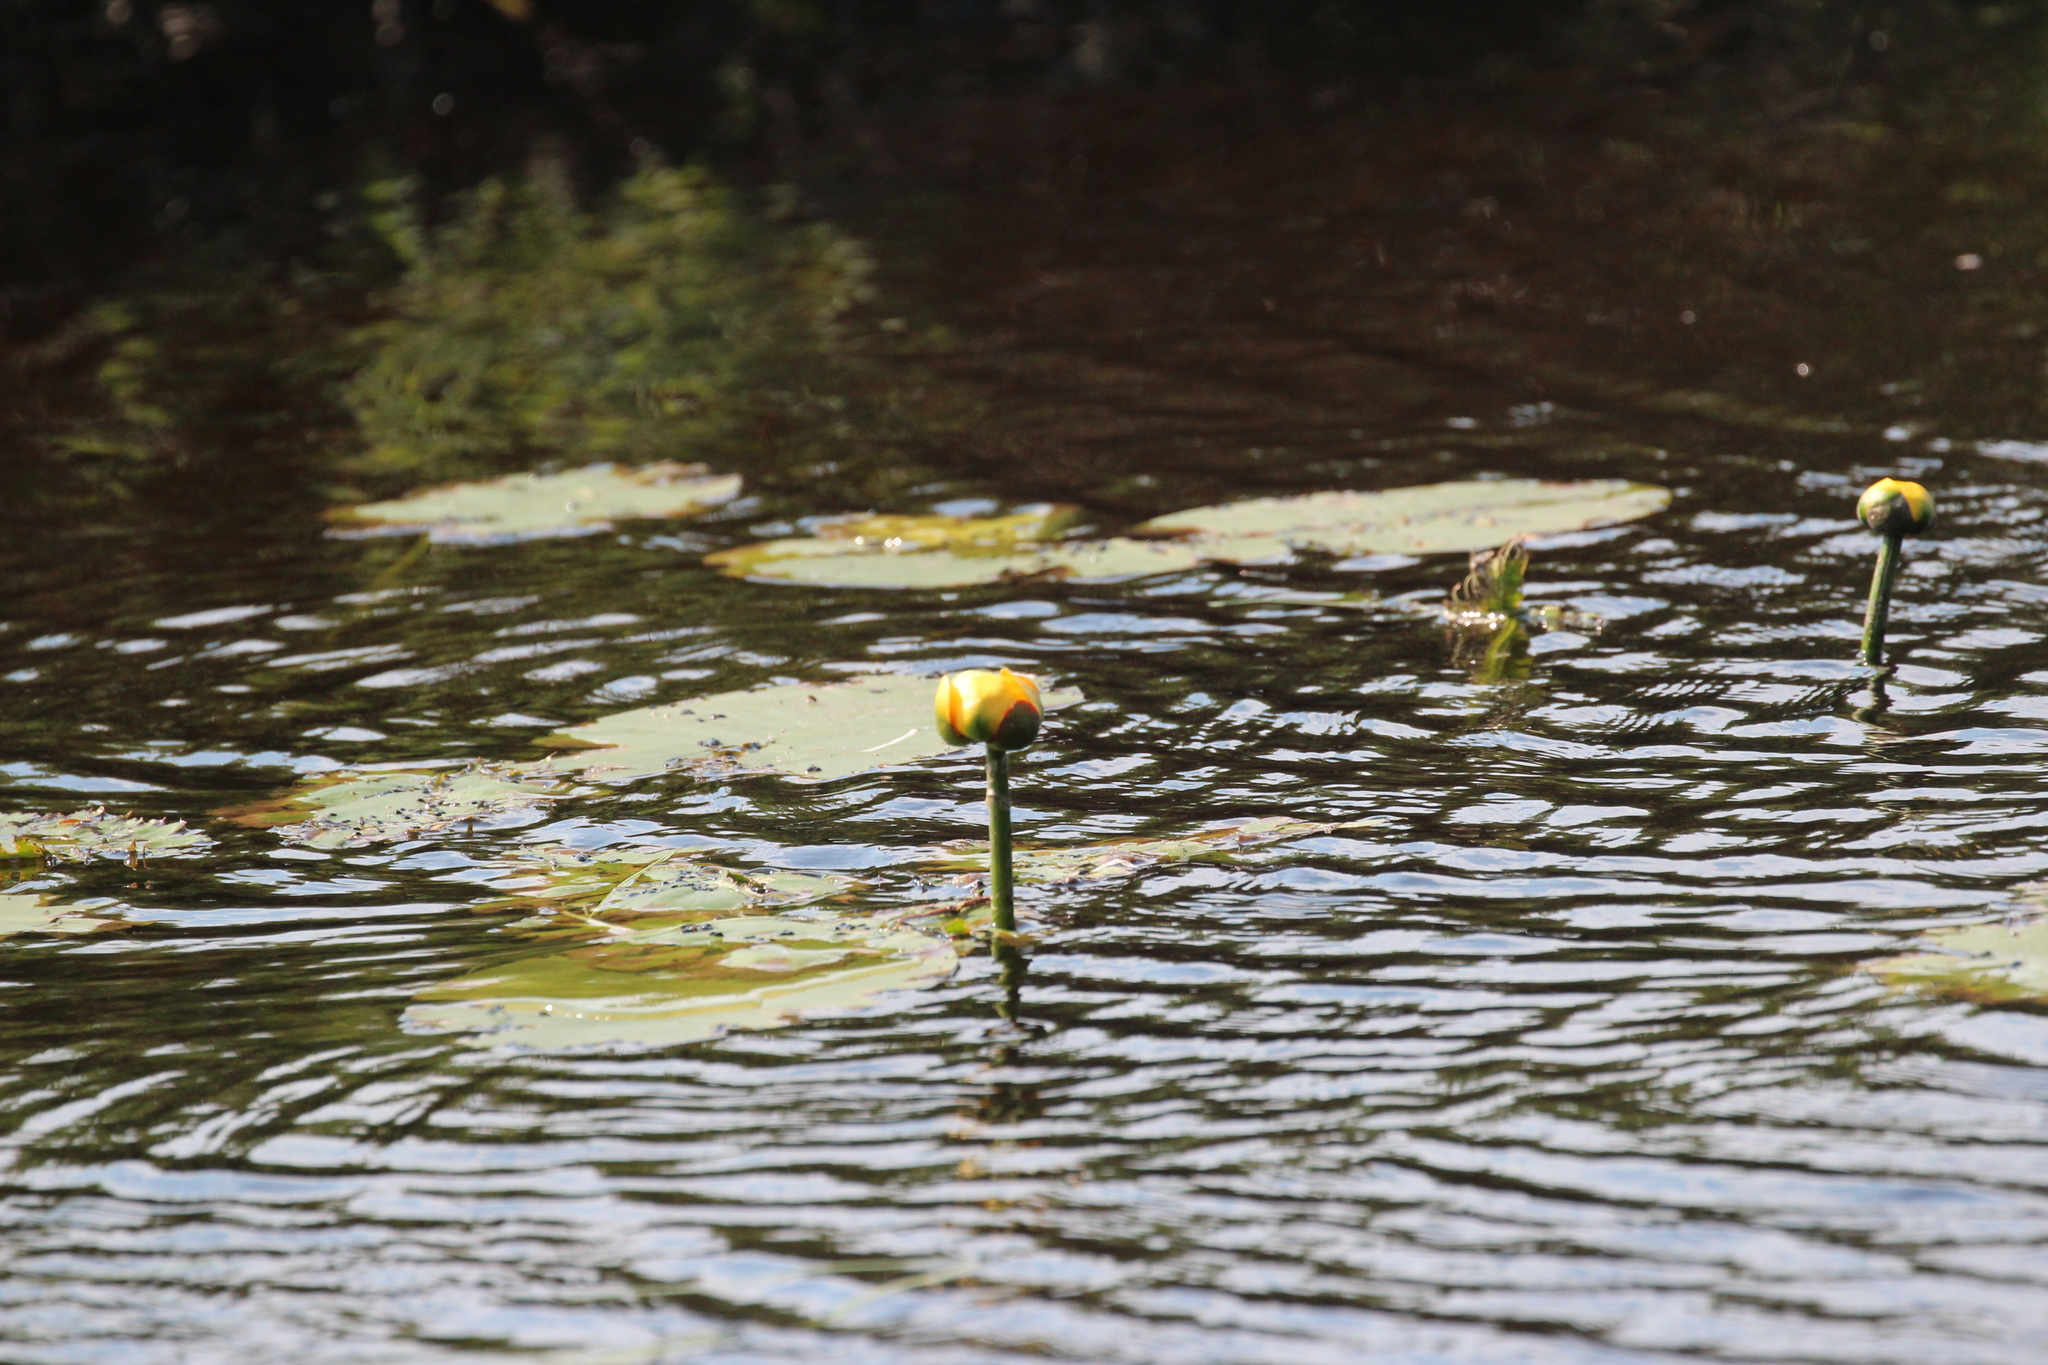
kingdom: Plantae
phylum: Tracheophyta
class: Magnoliopsida
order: Nymphaeales
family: Nymphaeaceae
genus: Nuphar
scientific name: Nuphar variegata
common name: Beaver-root
